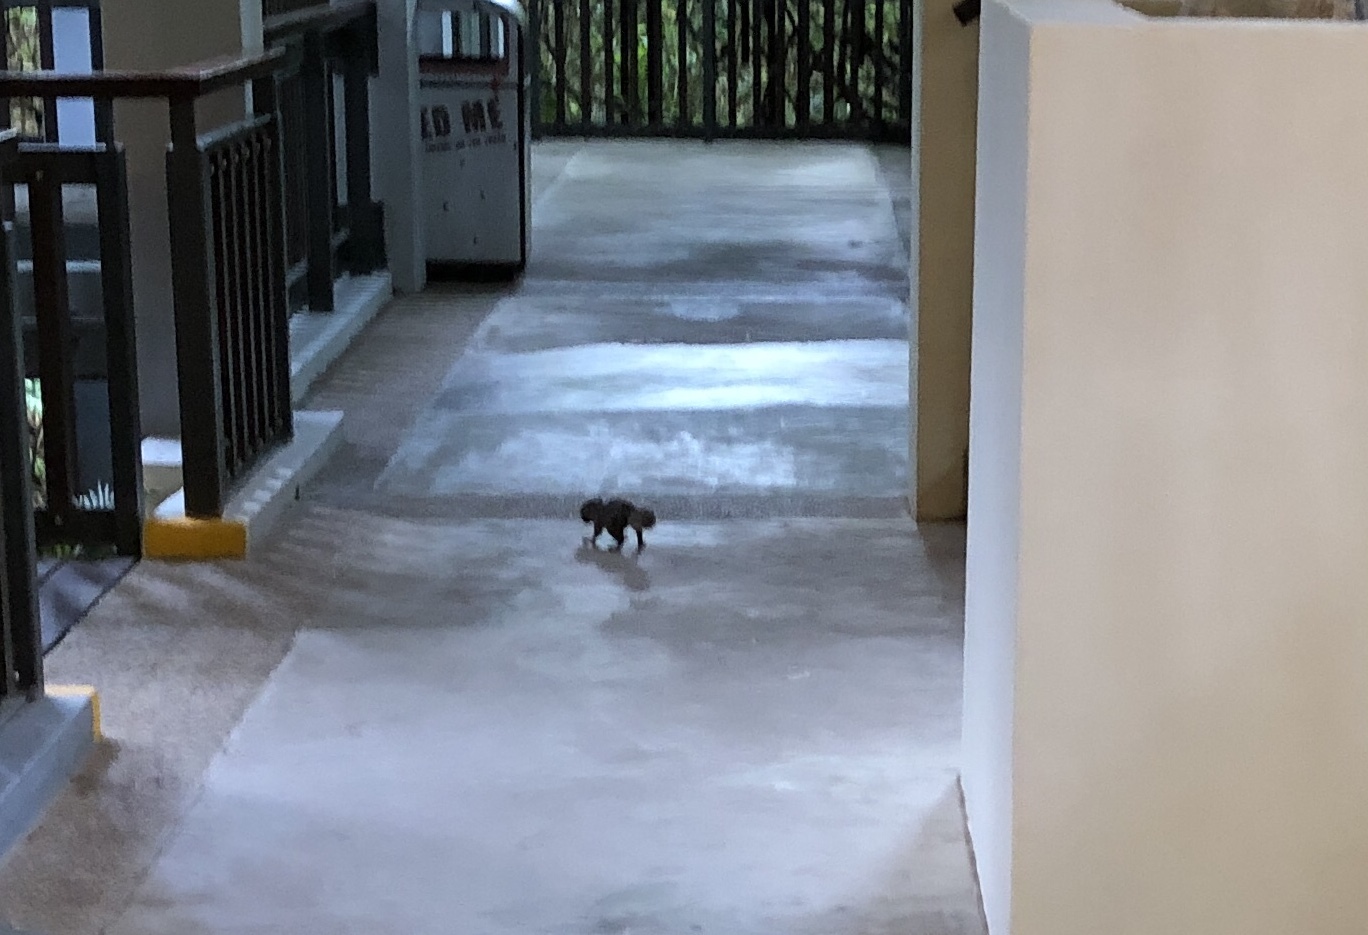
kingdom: Animalia
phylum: Chordata
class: Mammalia
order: Rodentia
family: Sciuridae
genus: Callosciurus
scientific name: Callosciurus notatus
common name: Plantain squirrel
